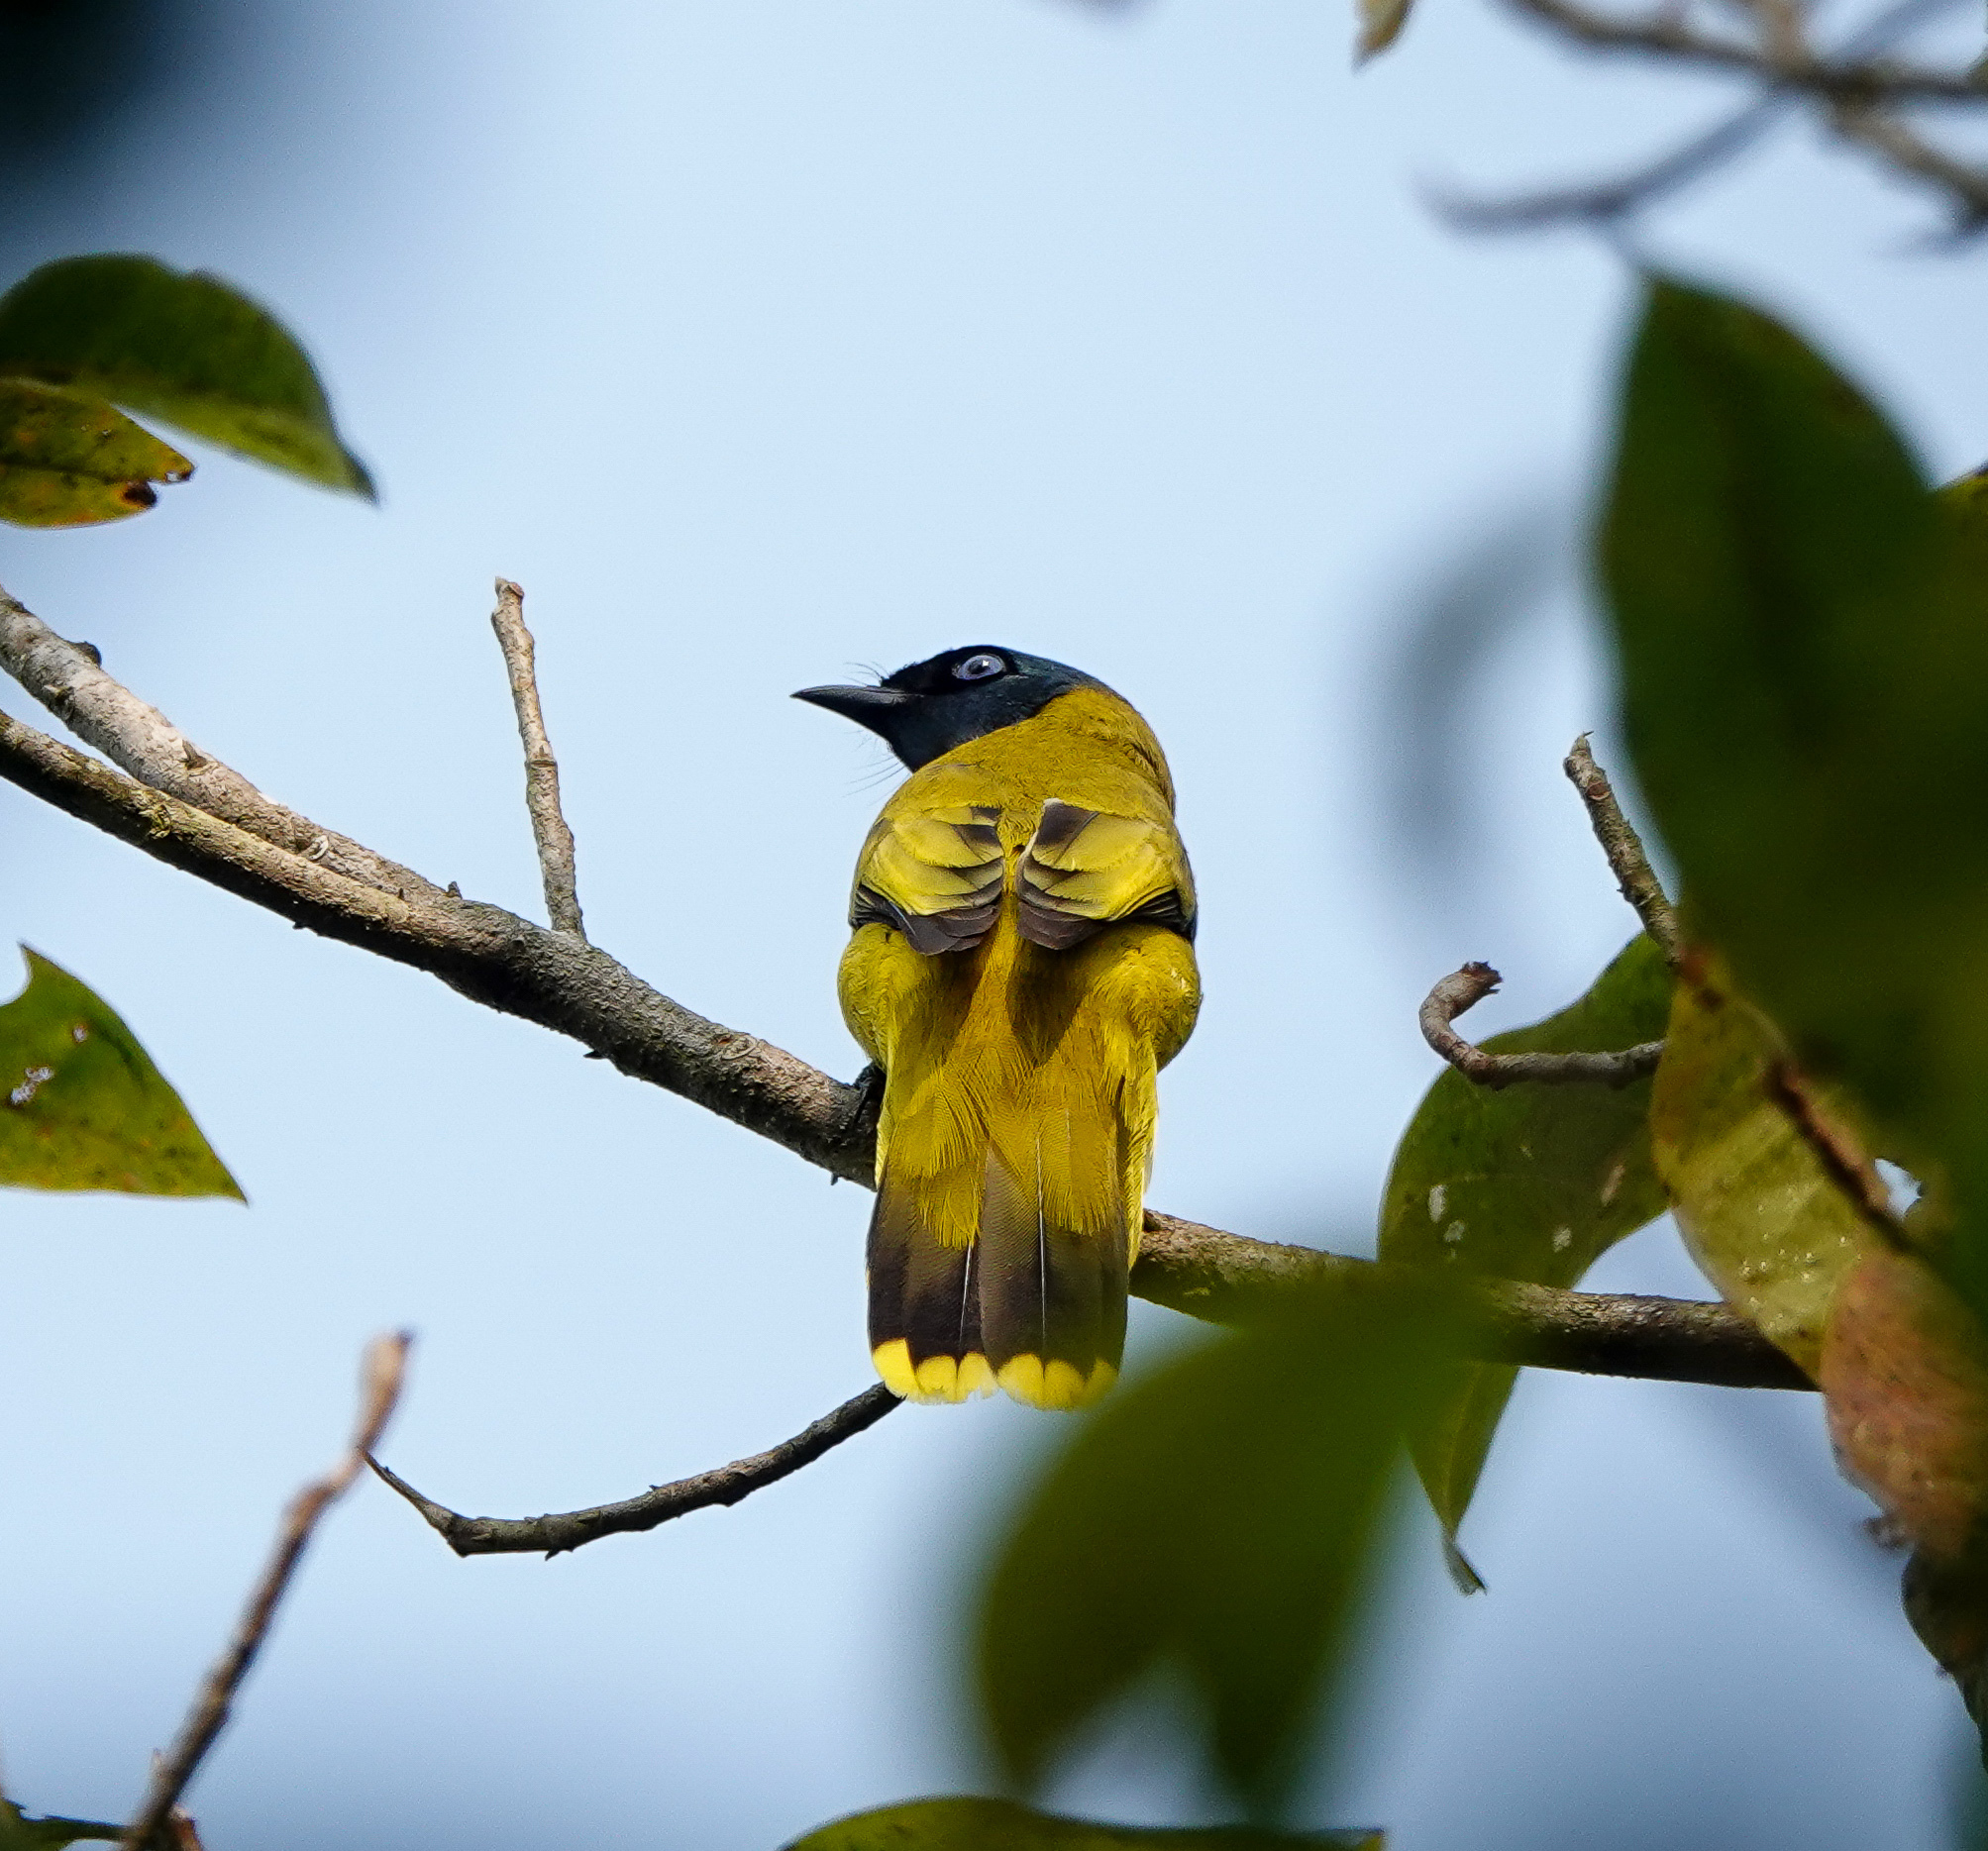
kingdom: Animalia
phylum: Chordata
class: Aves
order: Passeriformes
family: Pycnonotidae
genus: Microtarsus
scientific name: Microtarsus
